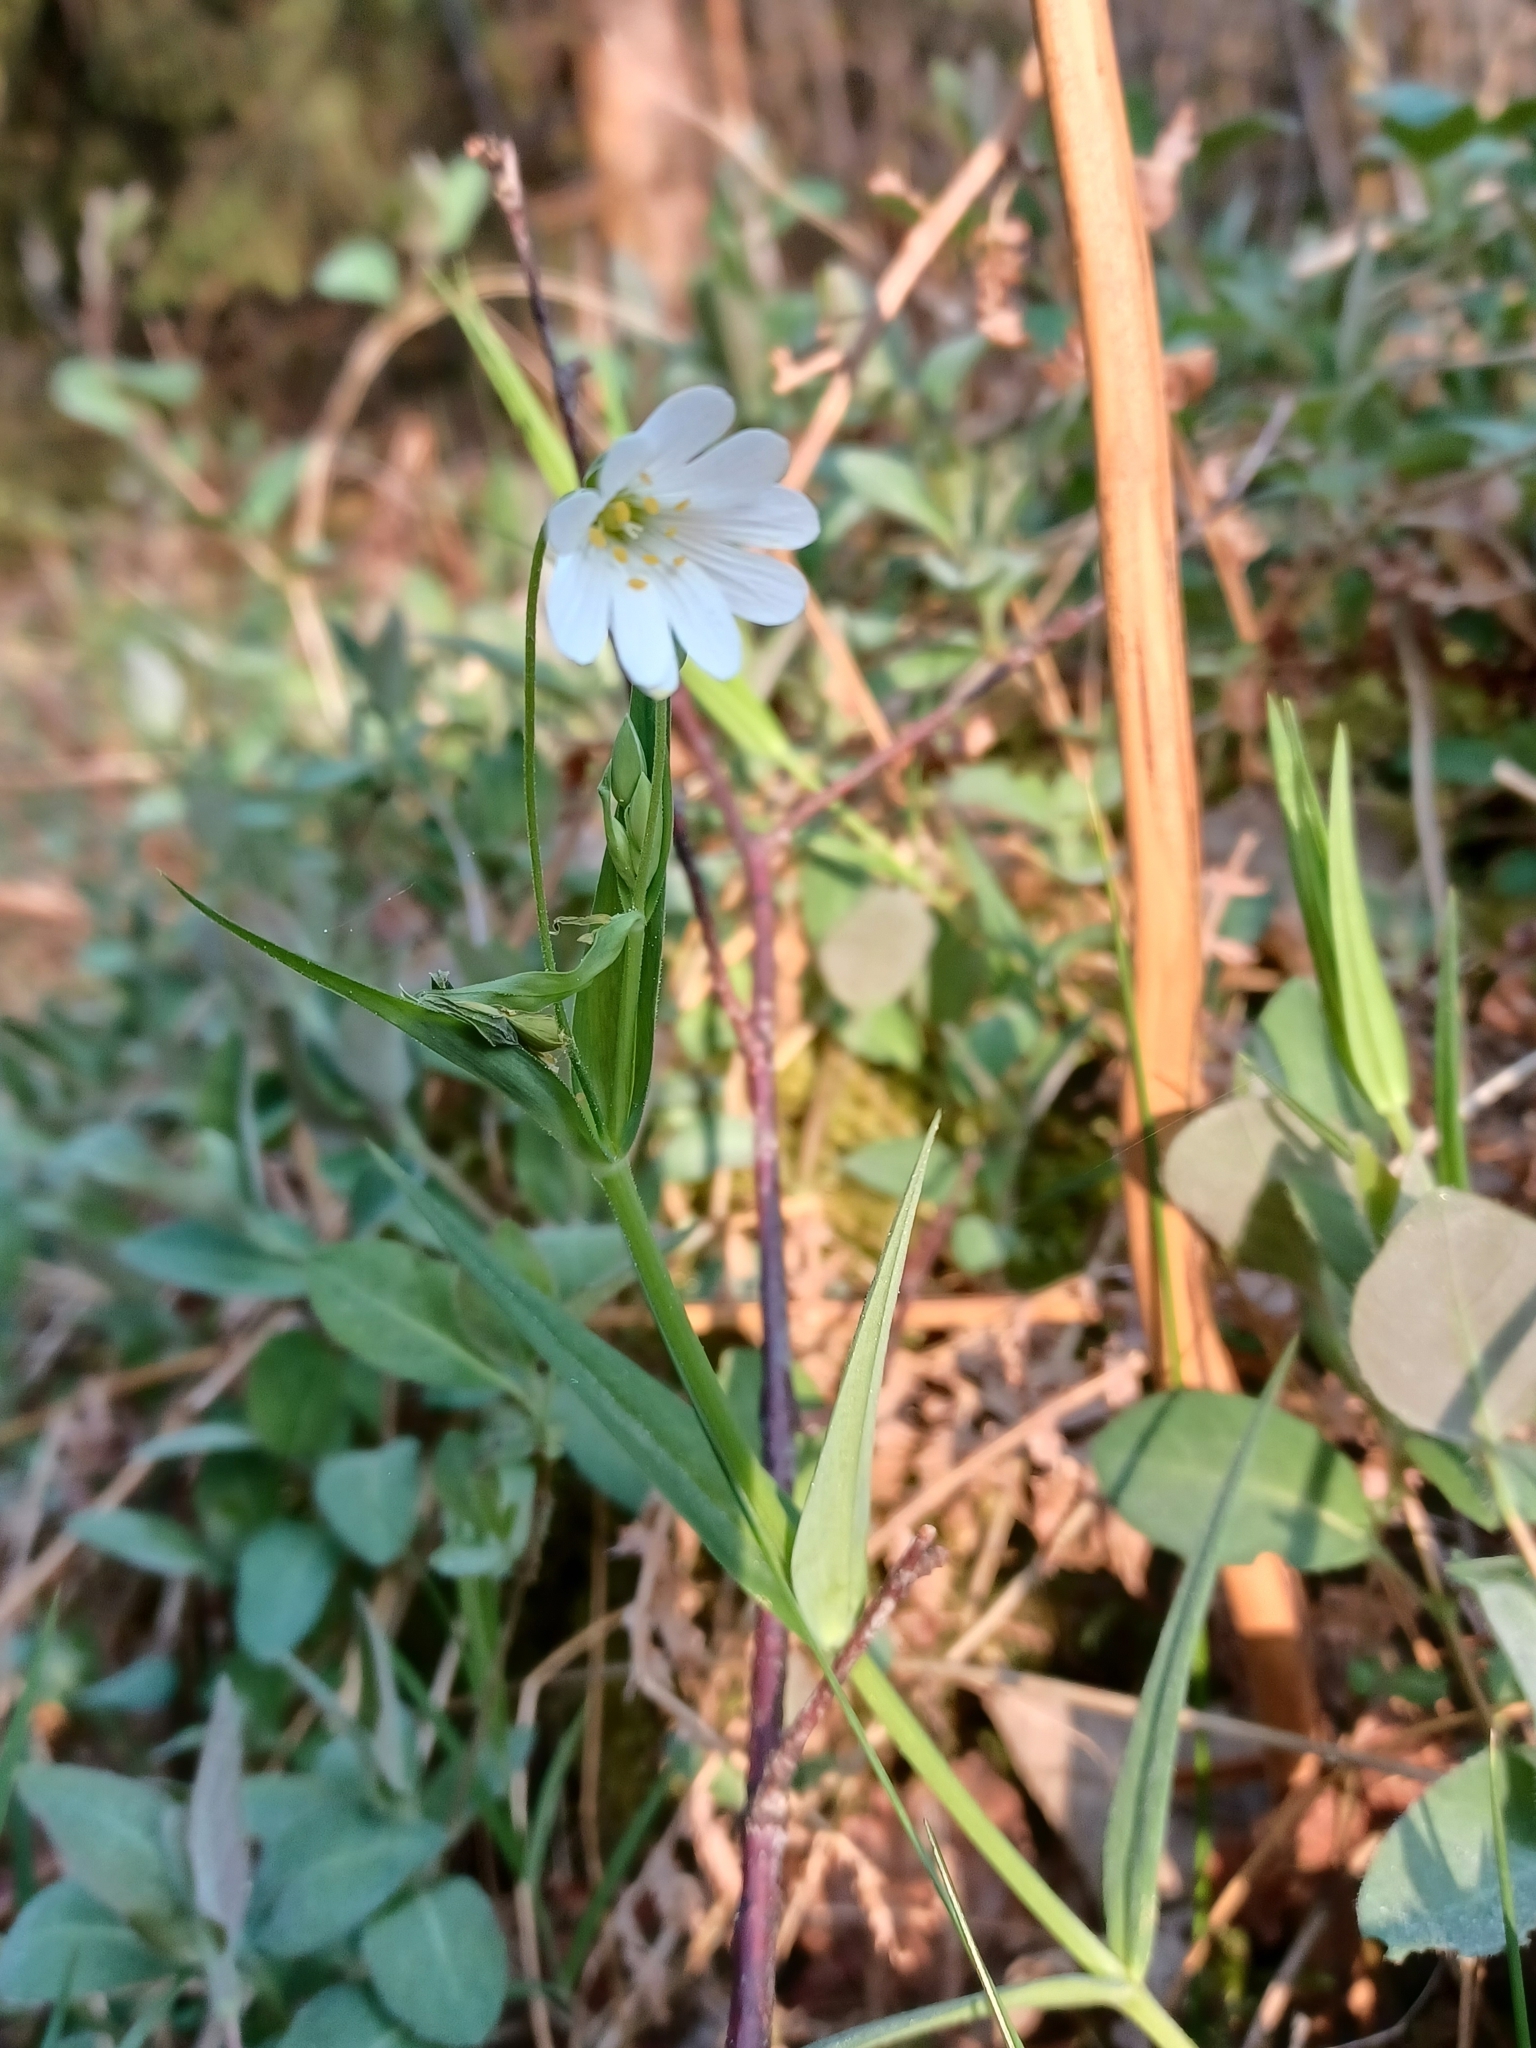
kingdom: Plantae
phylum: Tracheophyta
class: Magnoliopsida
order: Caryophyllales
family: Caryophyllaceae
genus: Rabelera
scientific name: Rabelera holostea
